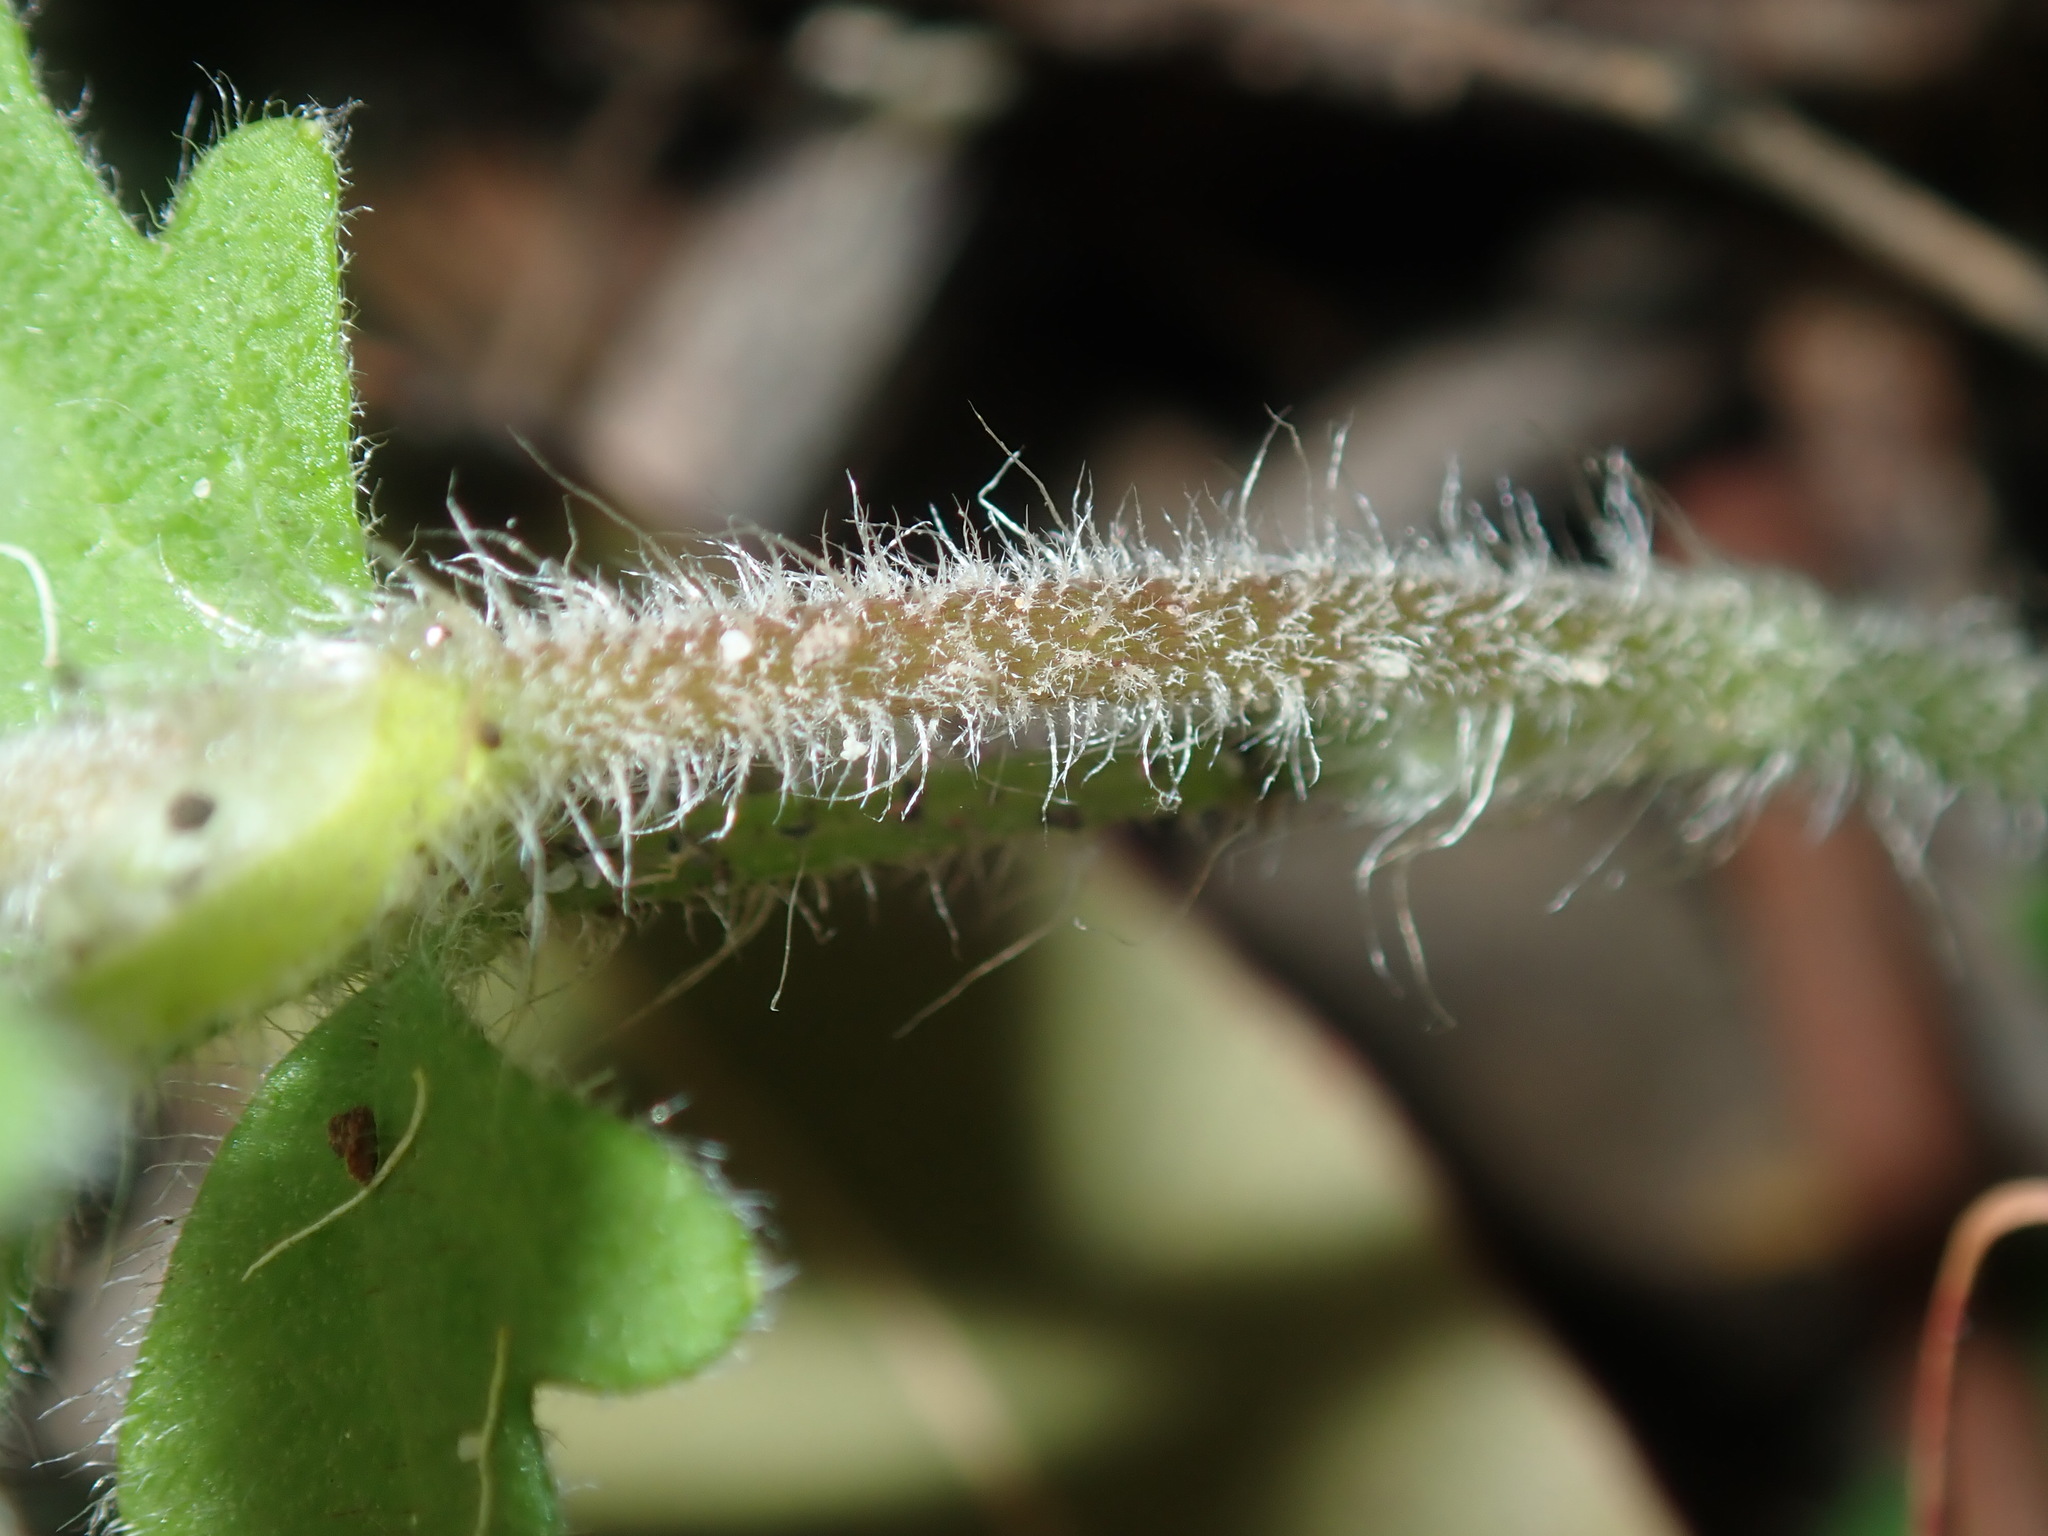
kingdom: Plantae
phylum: Tracheophyta
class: Magnoliopsida
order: Apiales
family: Apiaceae
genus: Xanthosia
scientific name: Xanthosia pilosa
